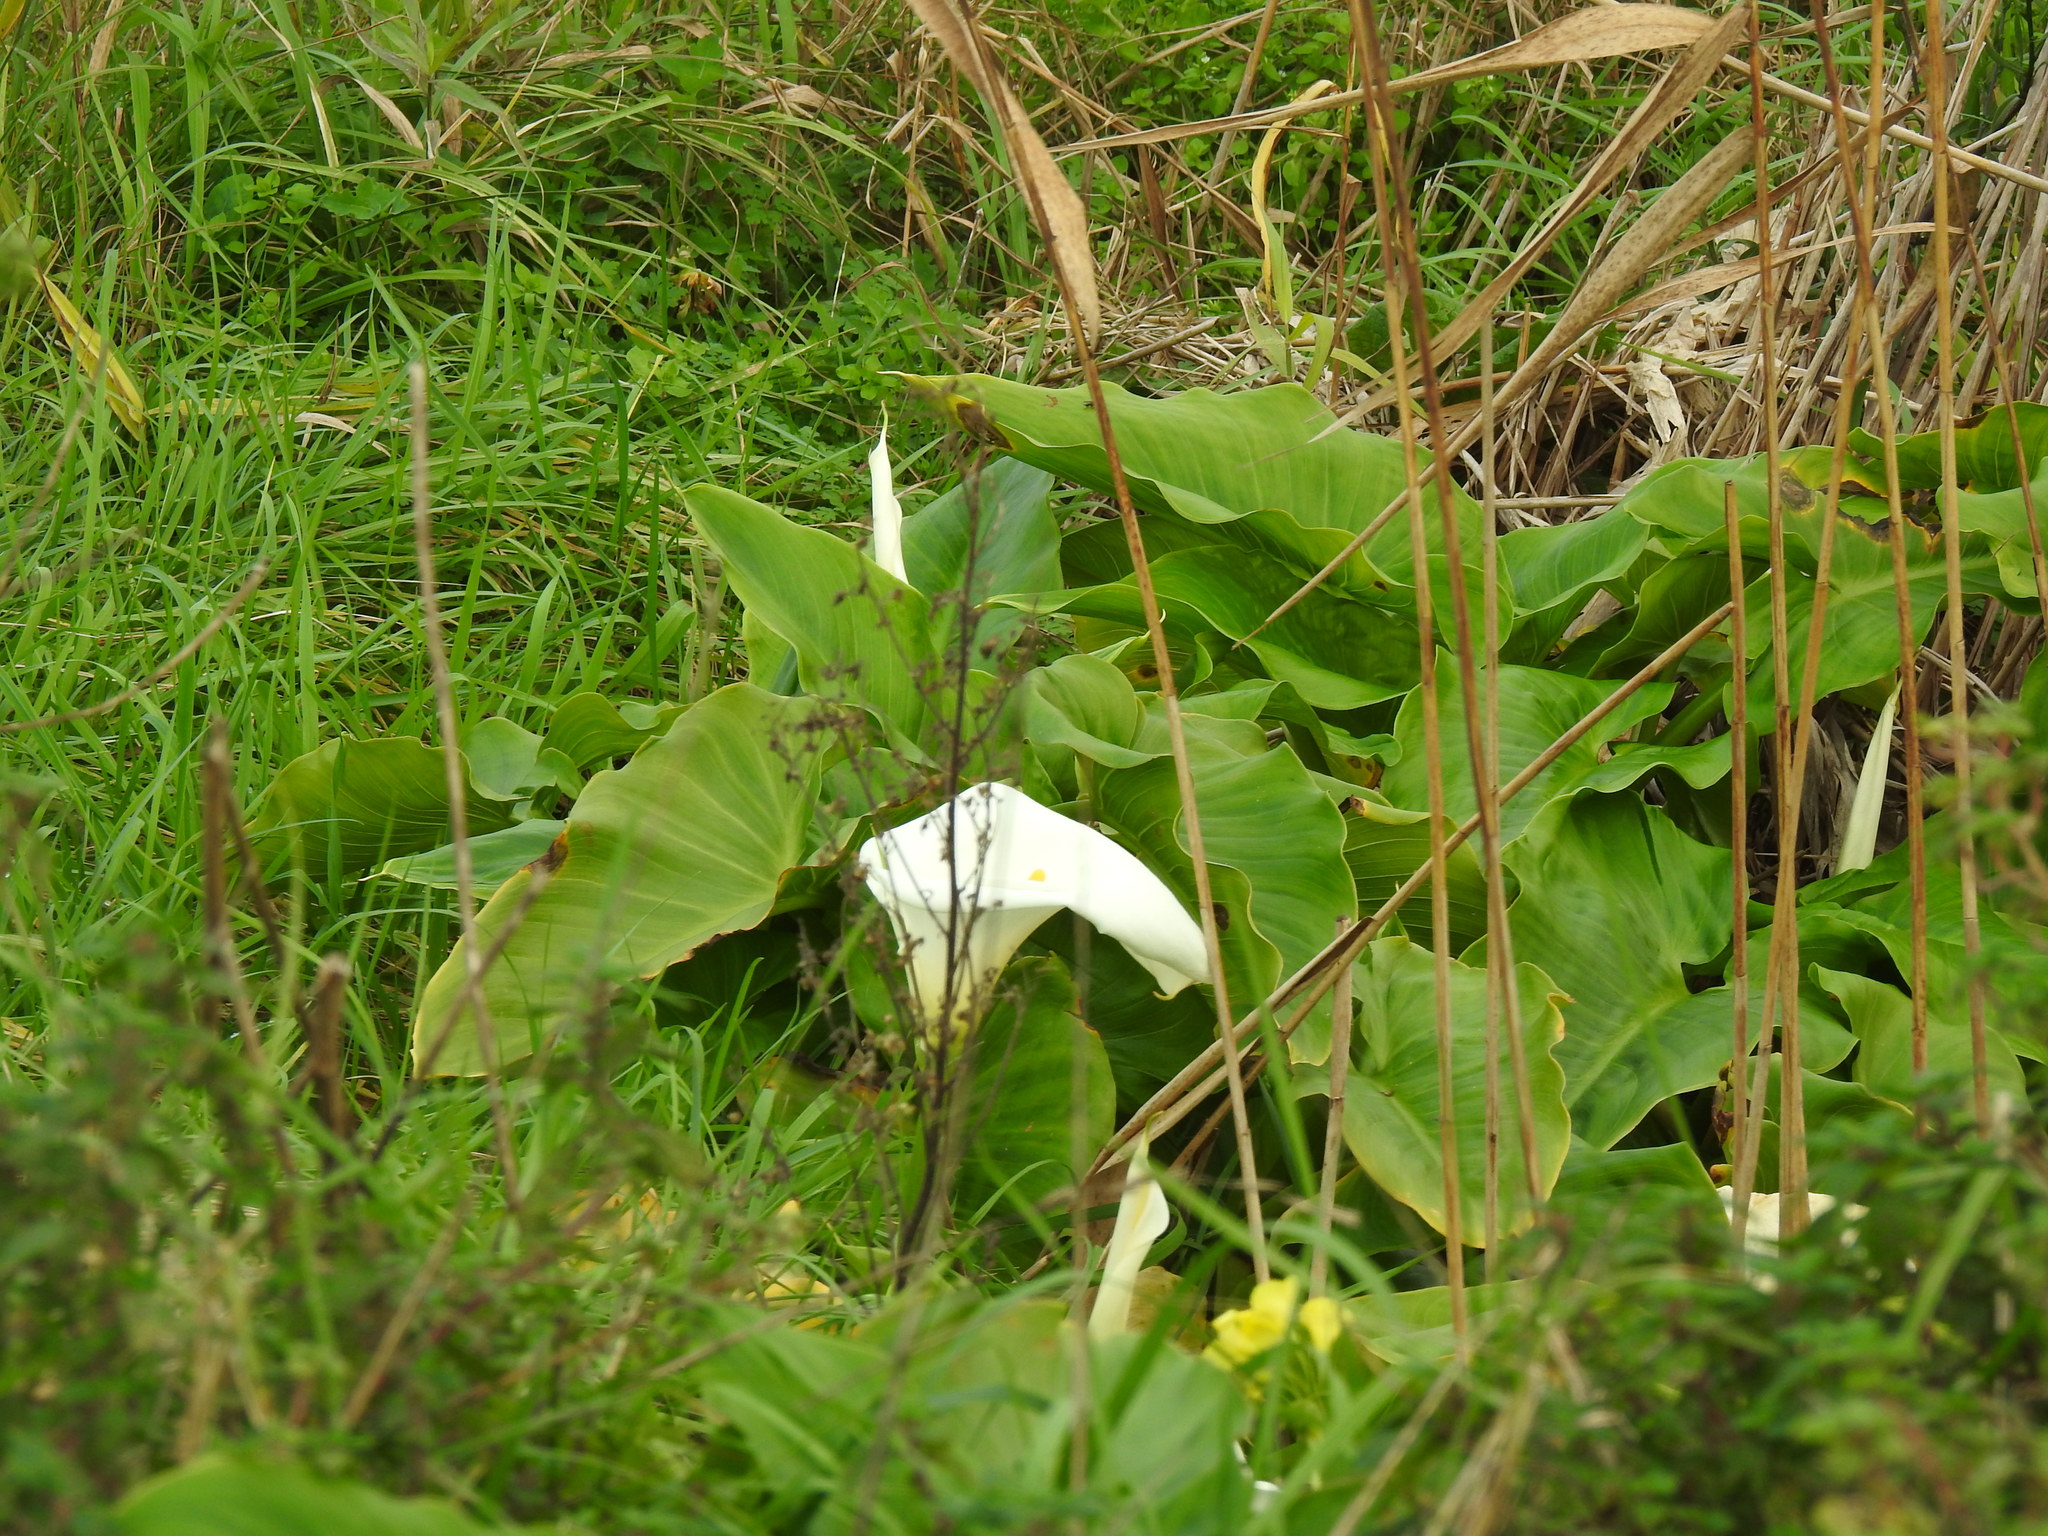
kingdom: Plantae
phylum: Tracheophyta
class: Liliopsida
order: Alismatales
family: Araceae
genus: Zantedeschia
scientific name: Zantedeschia aethiopica
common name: Altar-lily
